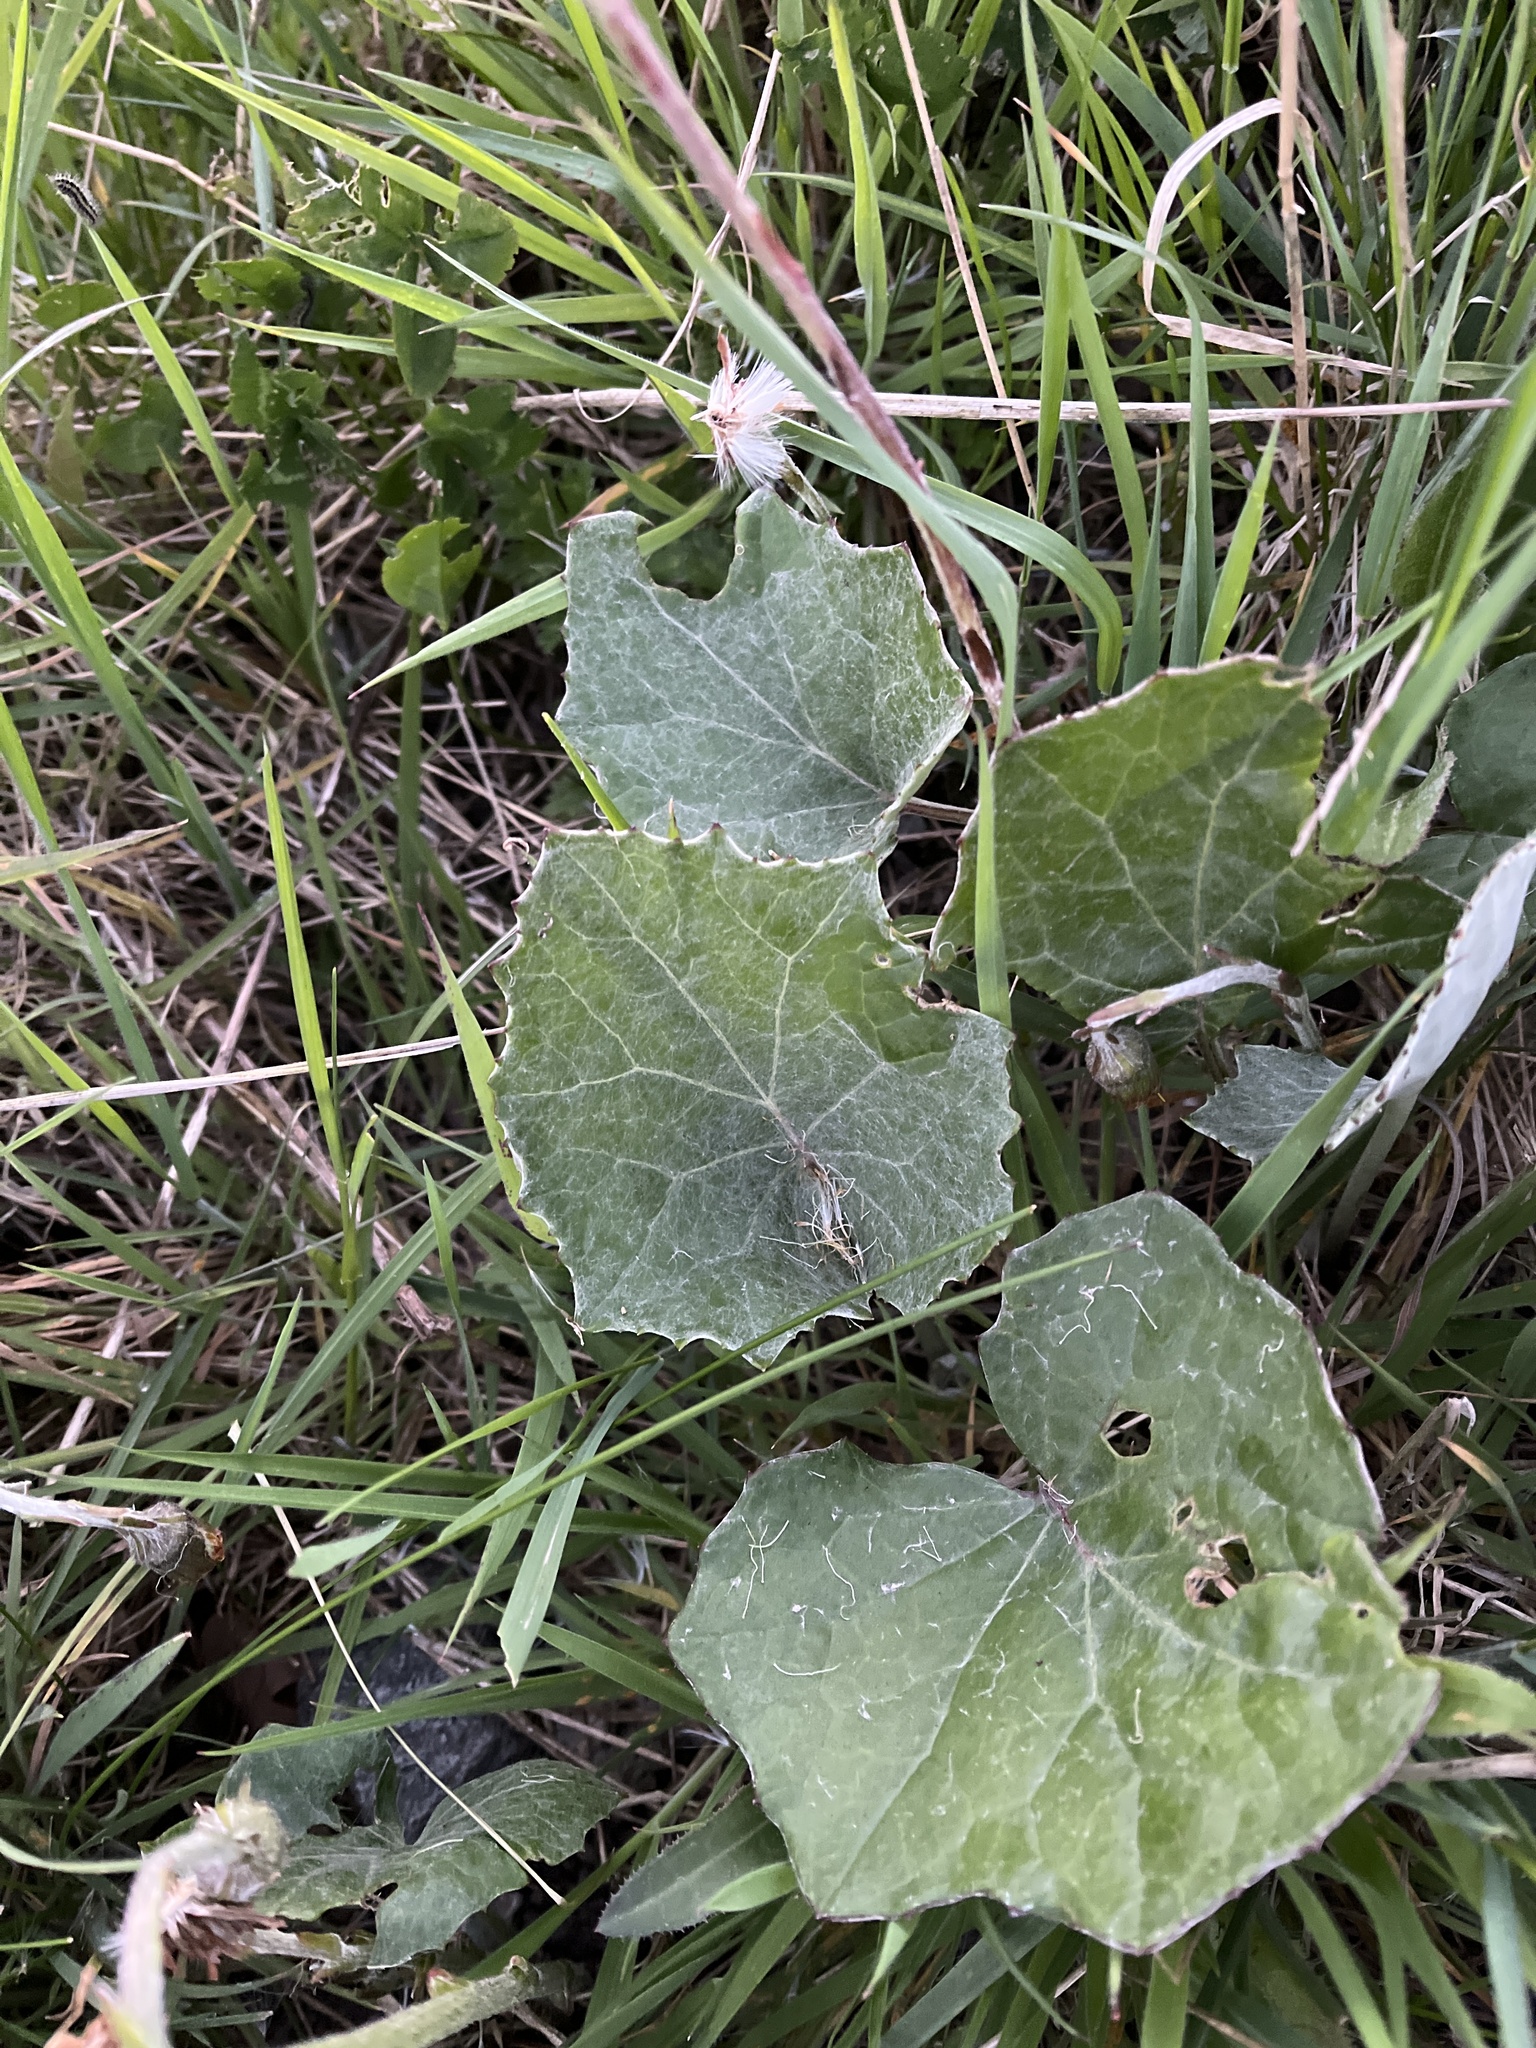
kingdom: Plantae
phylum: Tracheophyta
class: Magnoliopsida
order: Asterales
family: Asteraceae
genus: Tussilago
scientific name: Tussilago farfara
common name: Coltsfoot
